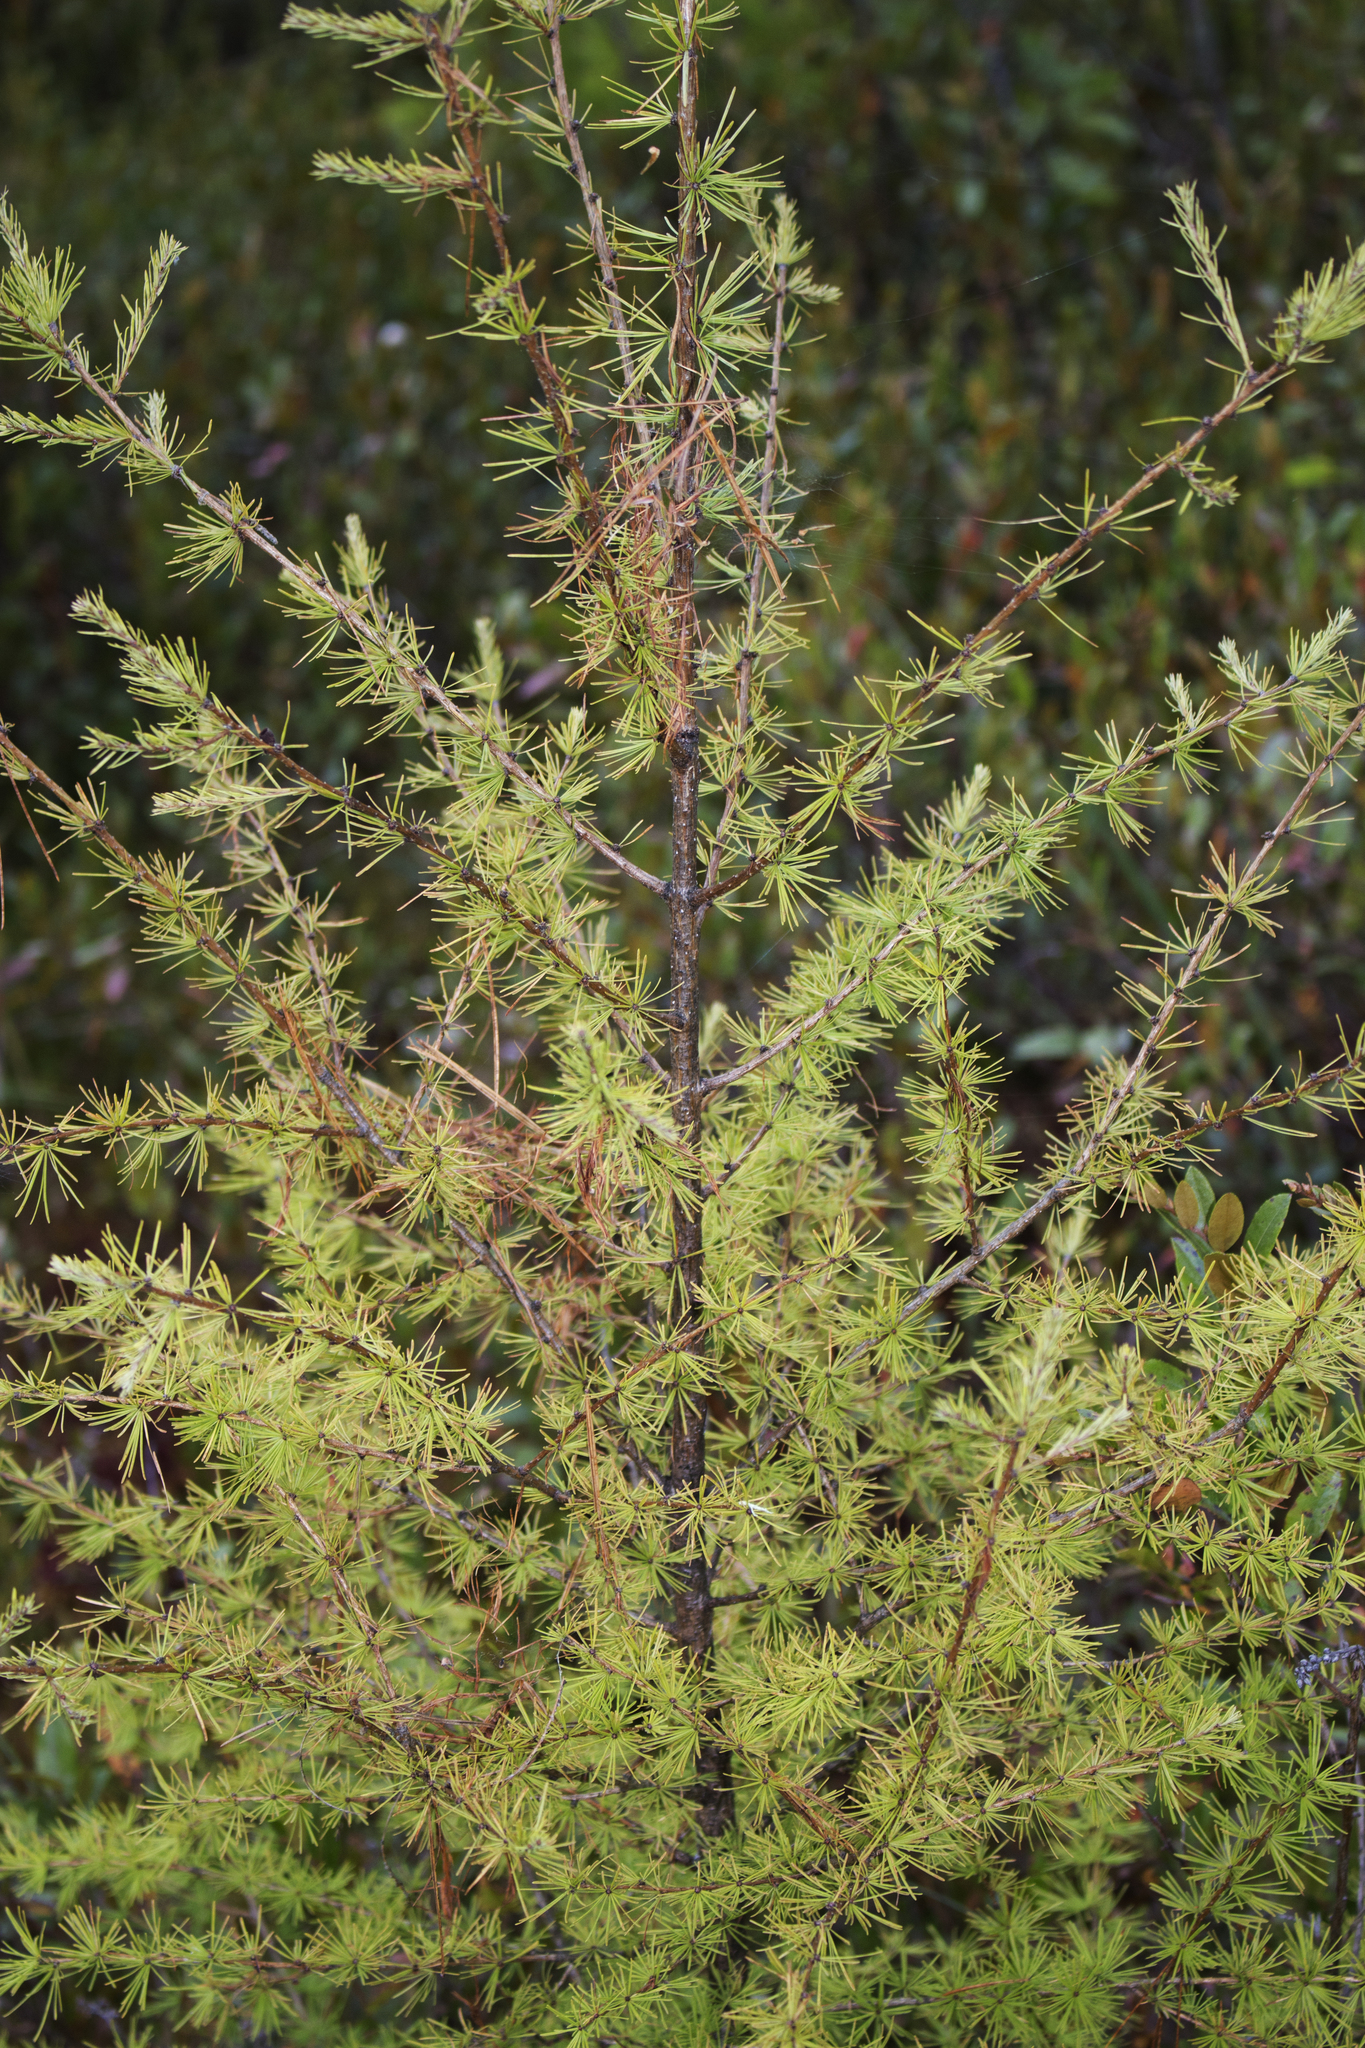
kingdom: Plantae
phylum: Tracheophyta
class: Pinopsida
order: Pinales
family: Pinaceae
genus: Larix
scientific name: Larix laricina
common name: American larch
